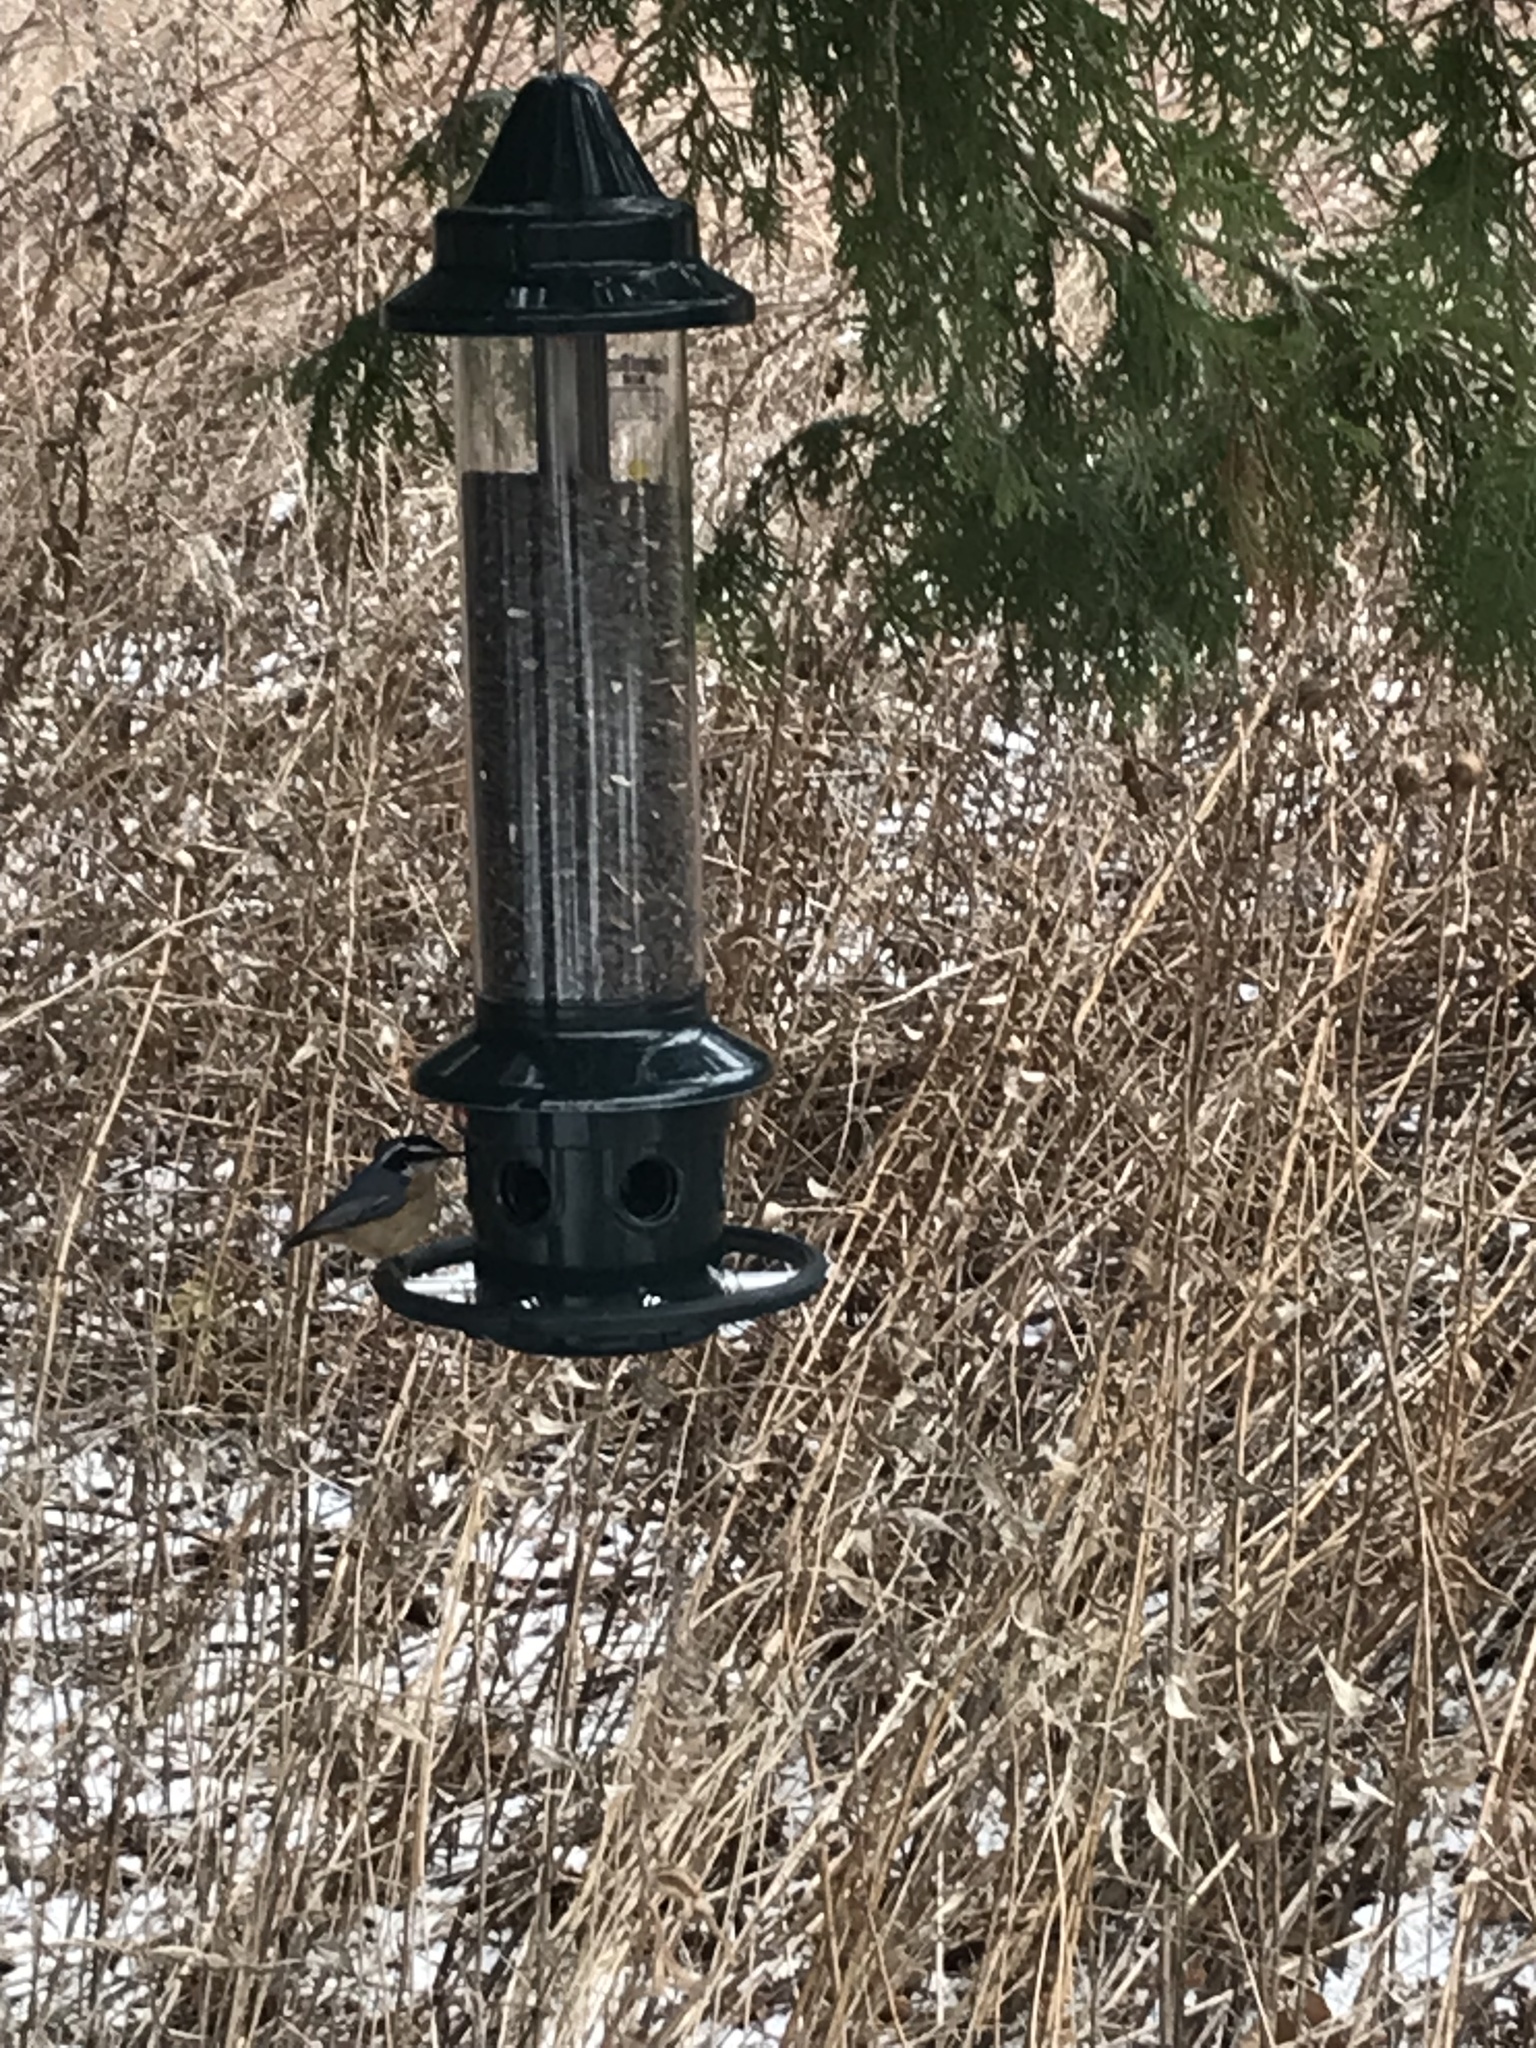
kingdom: Animalia
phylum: Chordata
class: Aves
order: Passeriformes
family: Sittidae
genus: Sitta
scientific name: Sitta canadensis
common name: Red-breasted nuthatch
